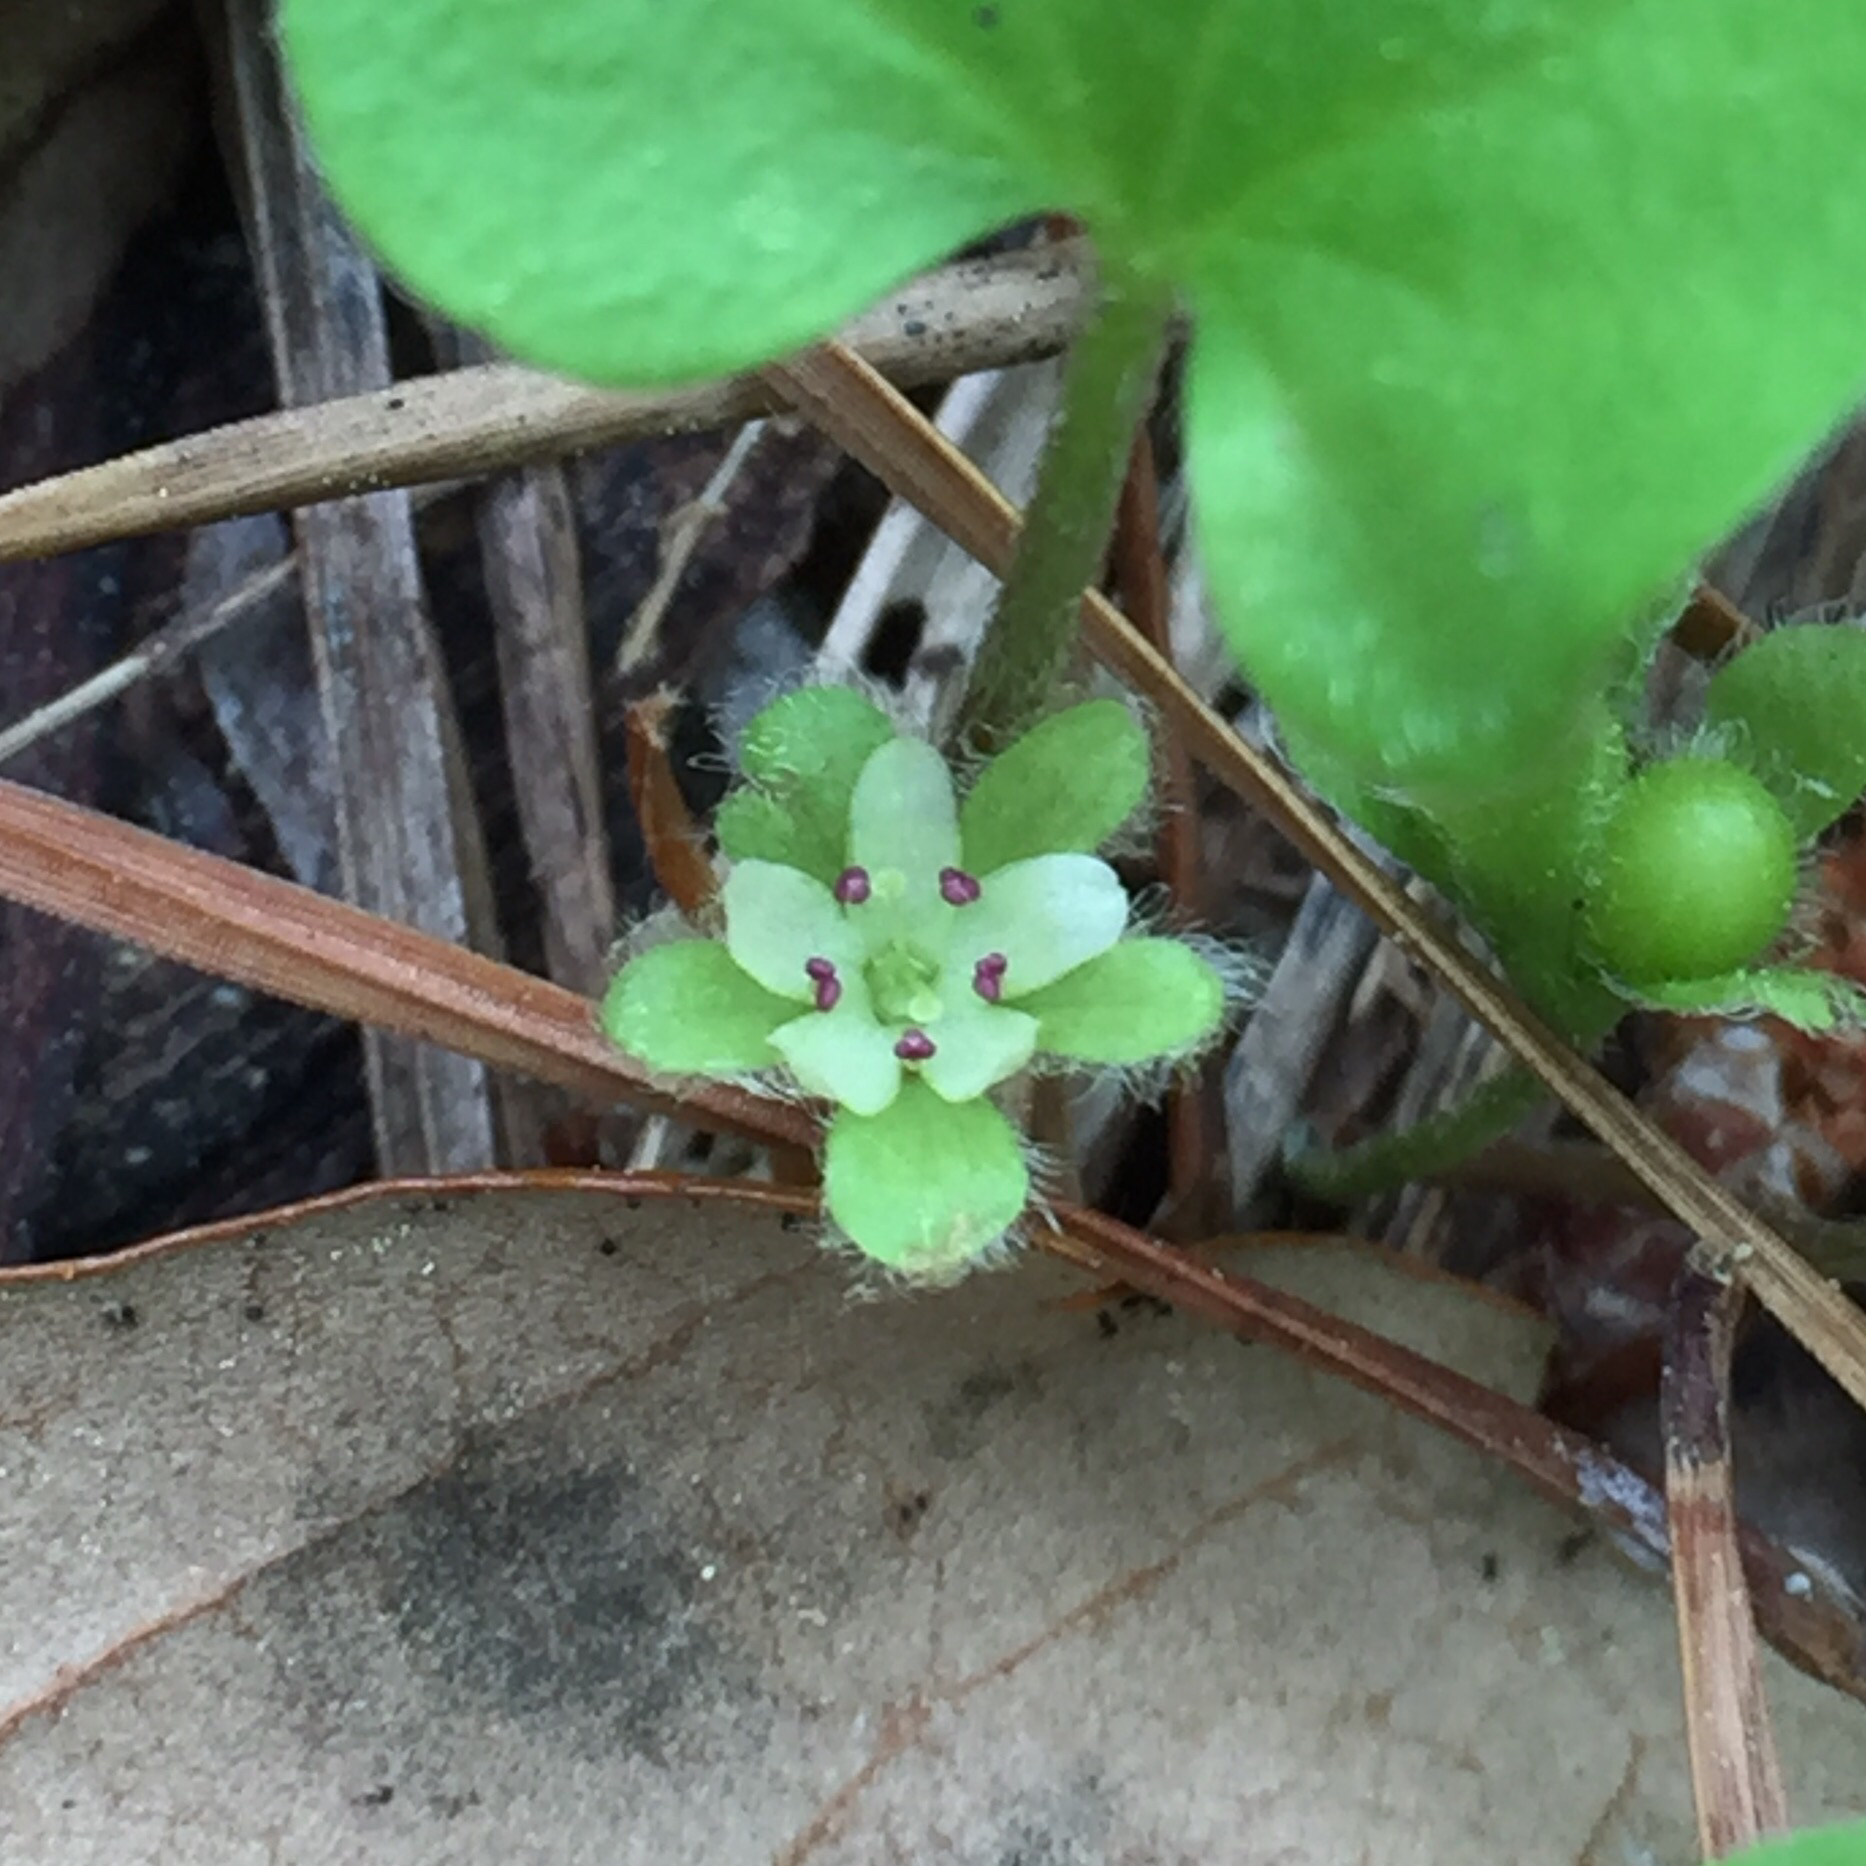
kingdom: Plantae
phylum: Tracheophyta
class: Magnoliopsida
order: Solanales
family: Convolvulaceae
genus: Dichondra
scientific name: Dichondra carolinensis
